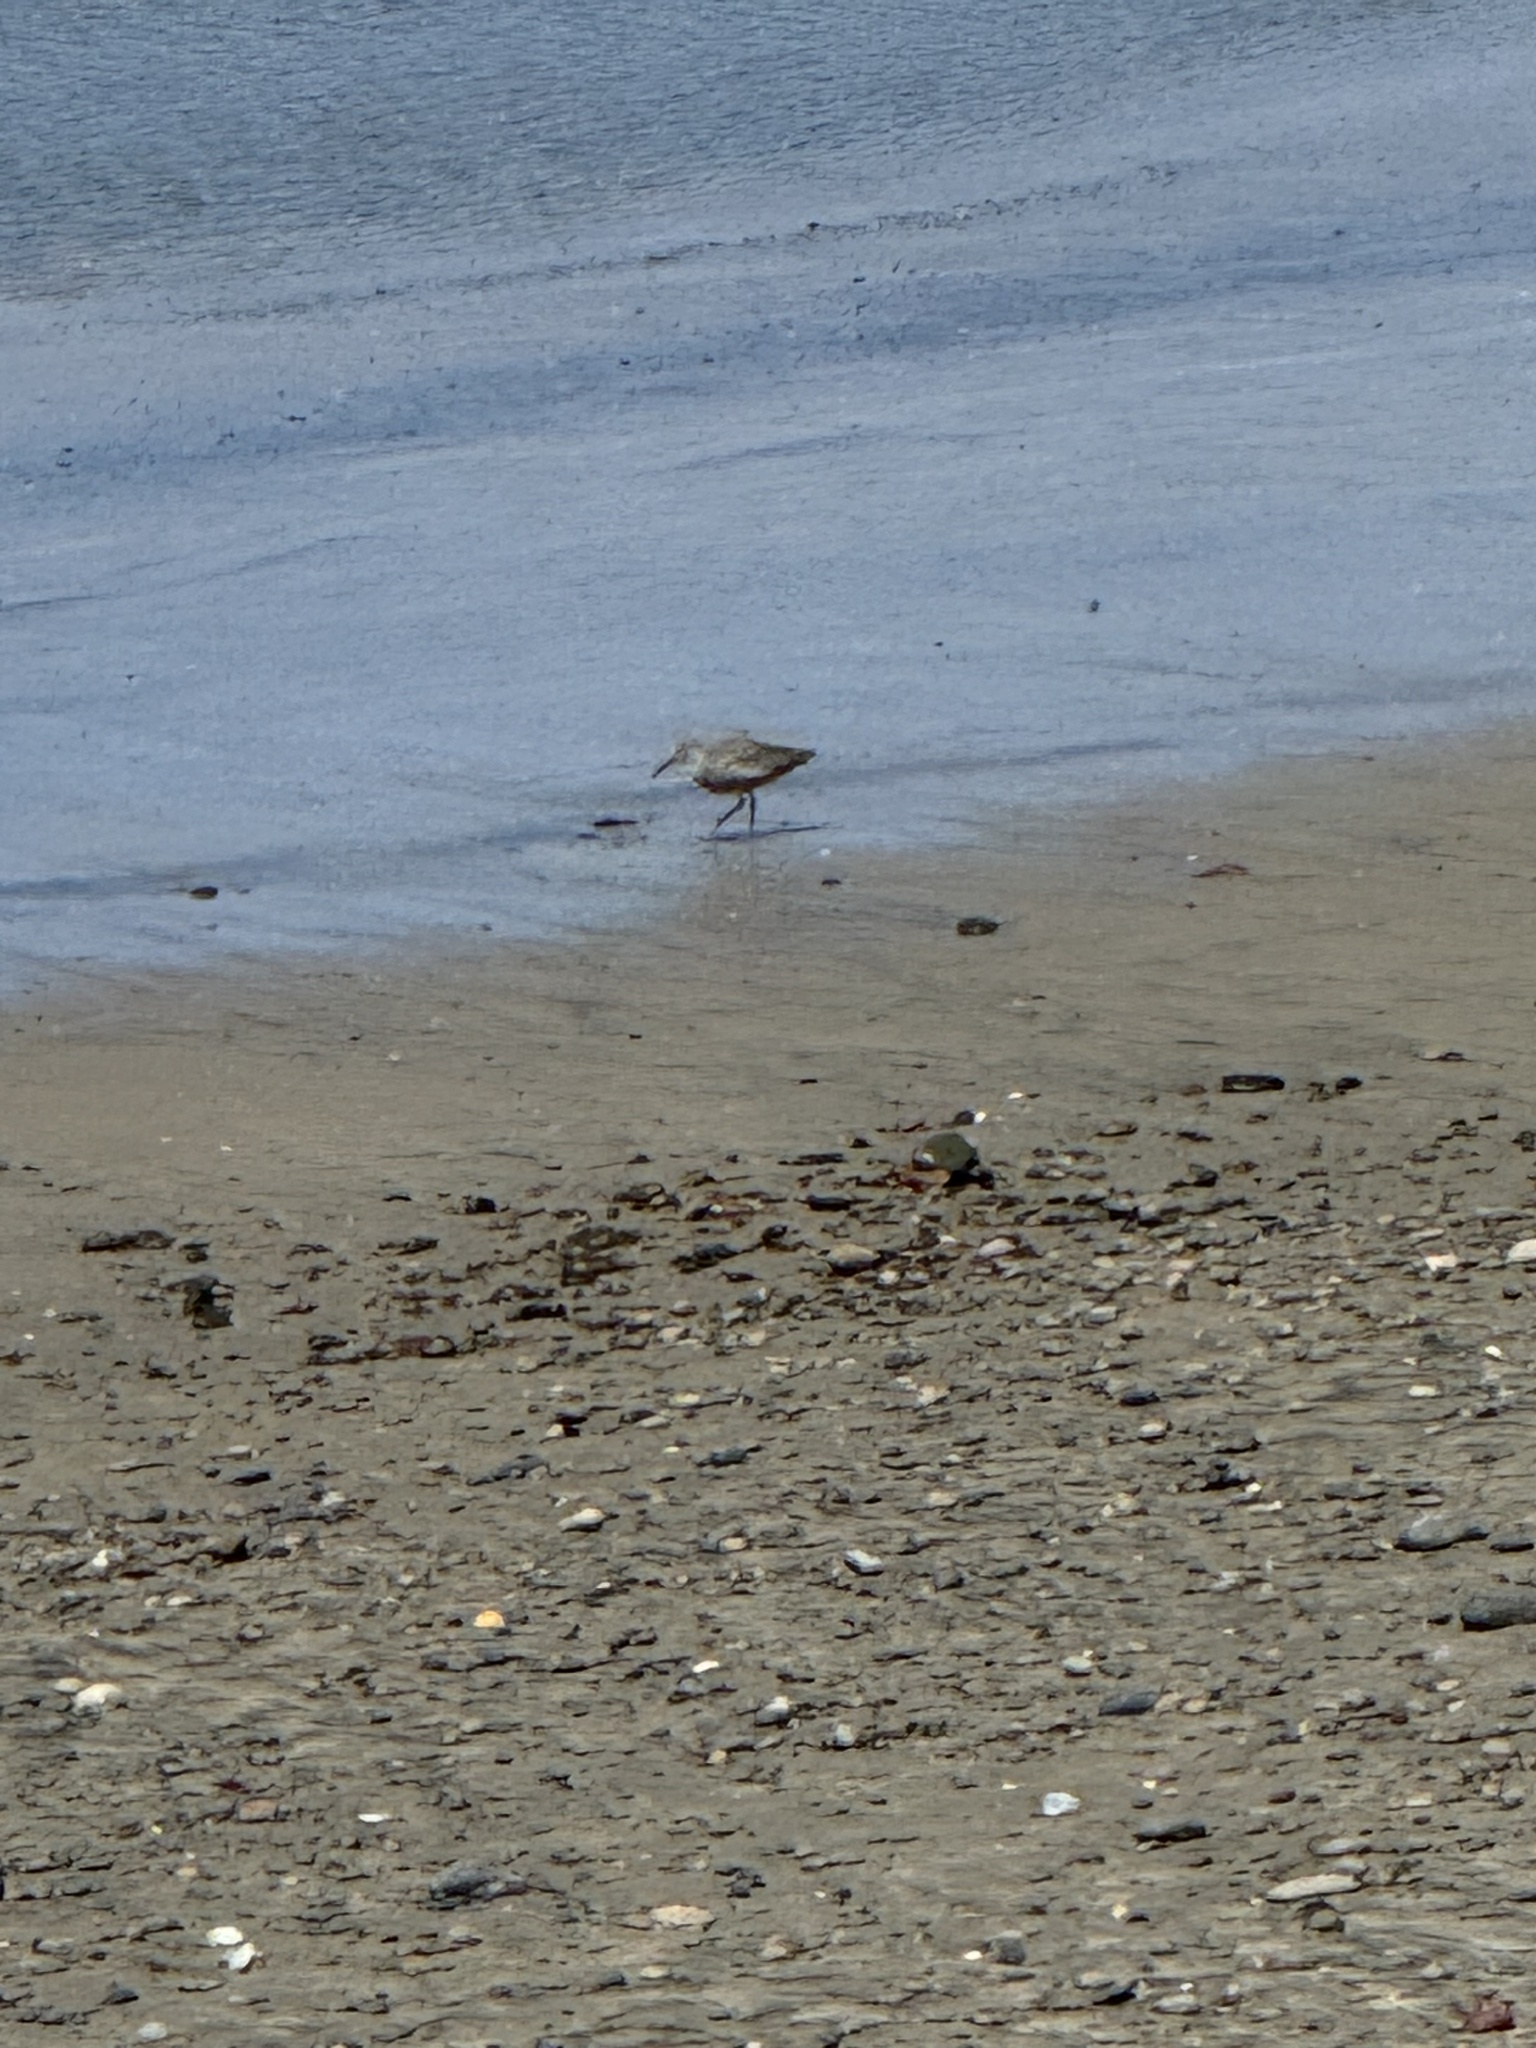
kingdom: Animalia
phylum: Chordata
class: Aves
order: Charadriiformes
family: Scolopacidae
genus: Tringa
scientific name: Tringa semipalmata
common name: Willet
